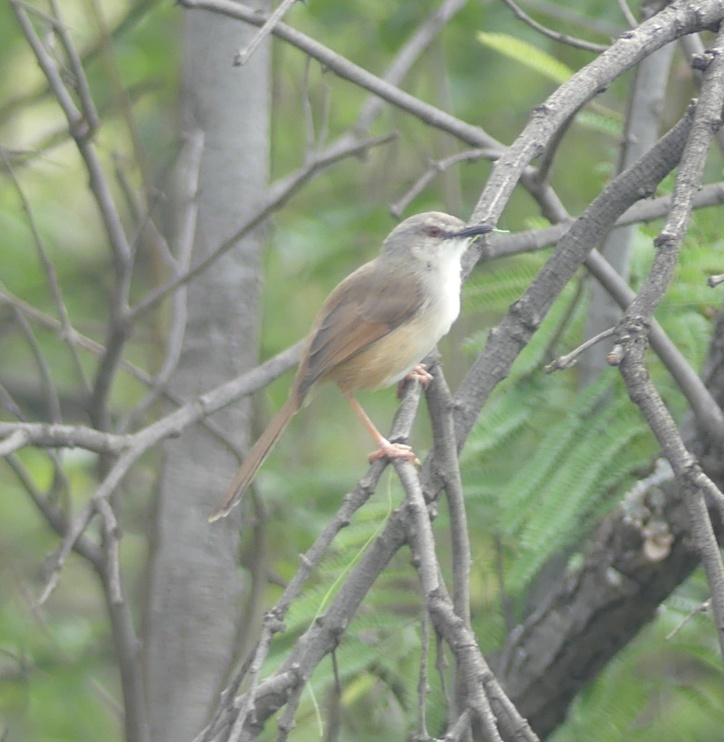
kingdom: Animalia
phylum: Chordata
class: Aves
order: Passeriformes
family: Cisticolidae
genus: Prinia
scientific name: Prinia subflava
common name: Tawny-flanked prinia
